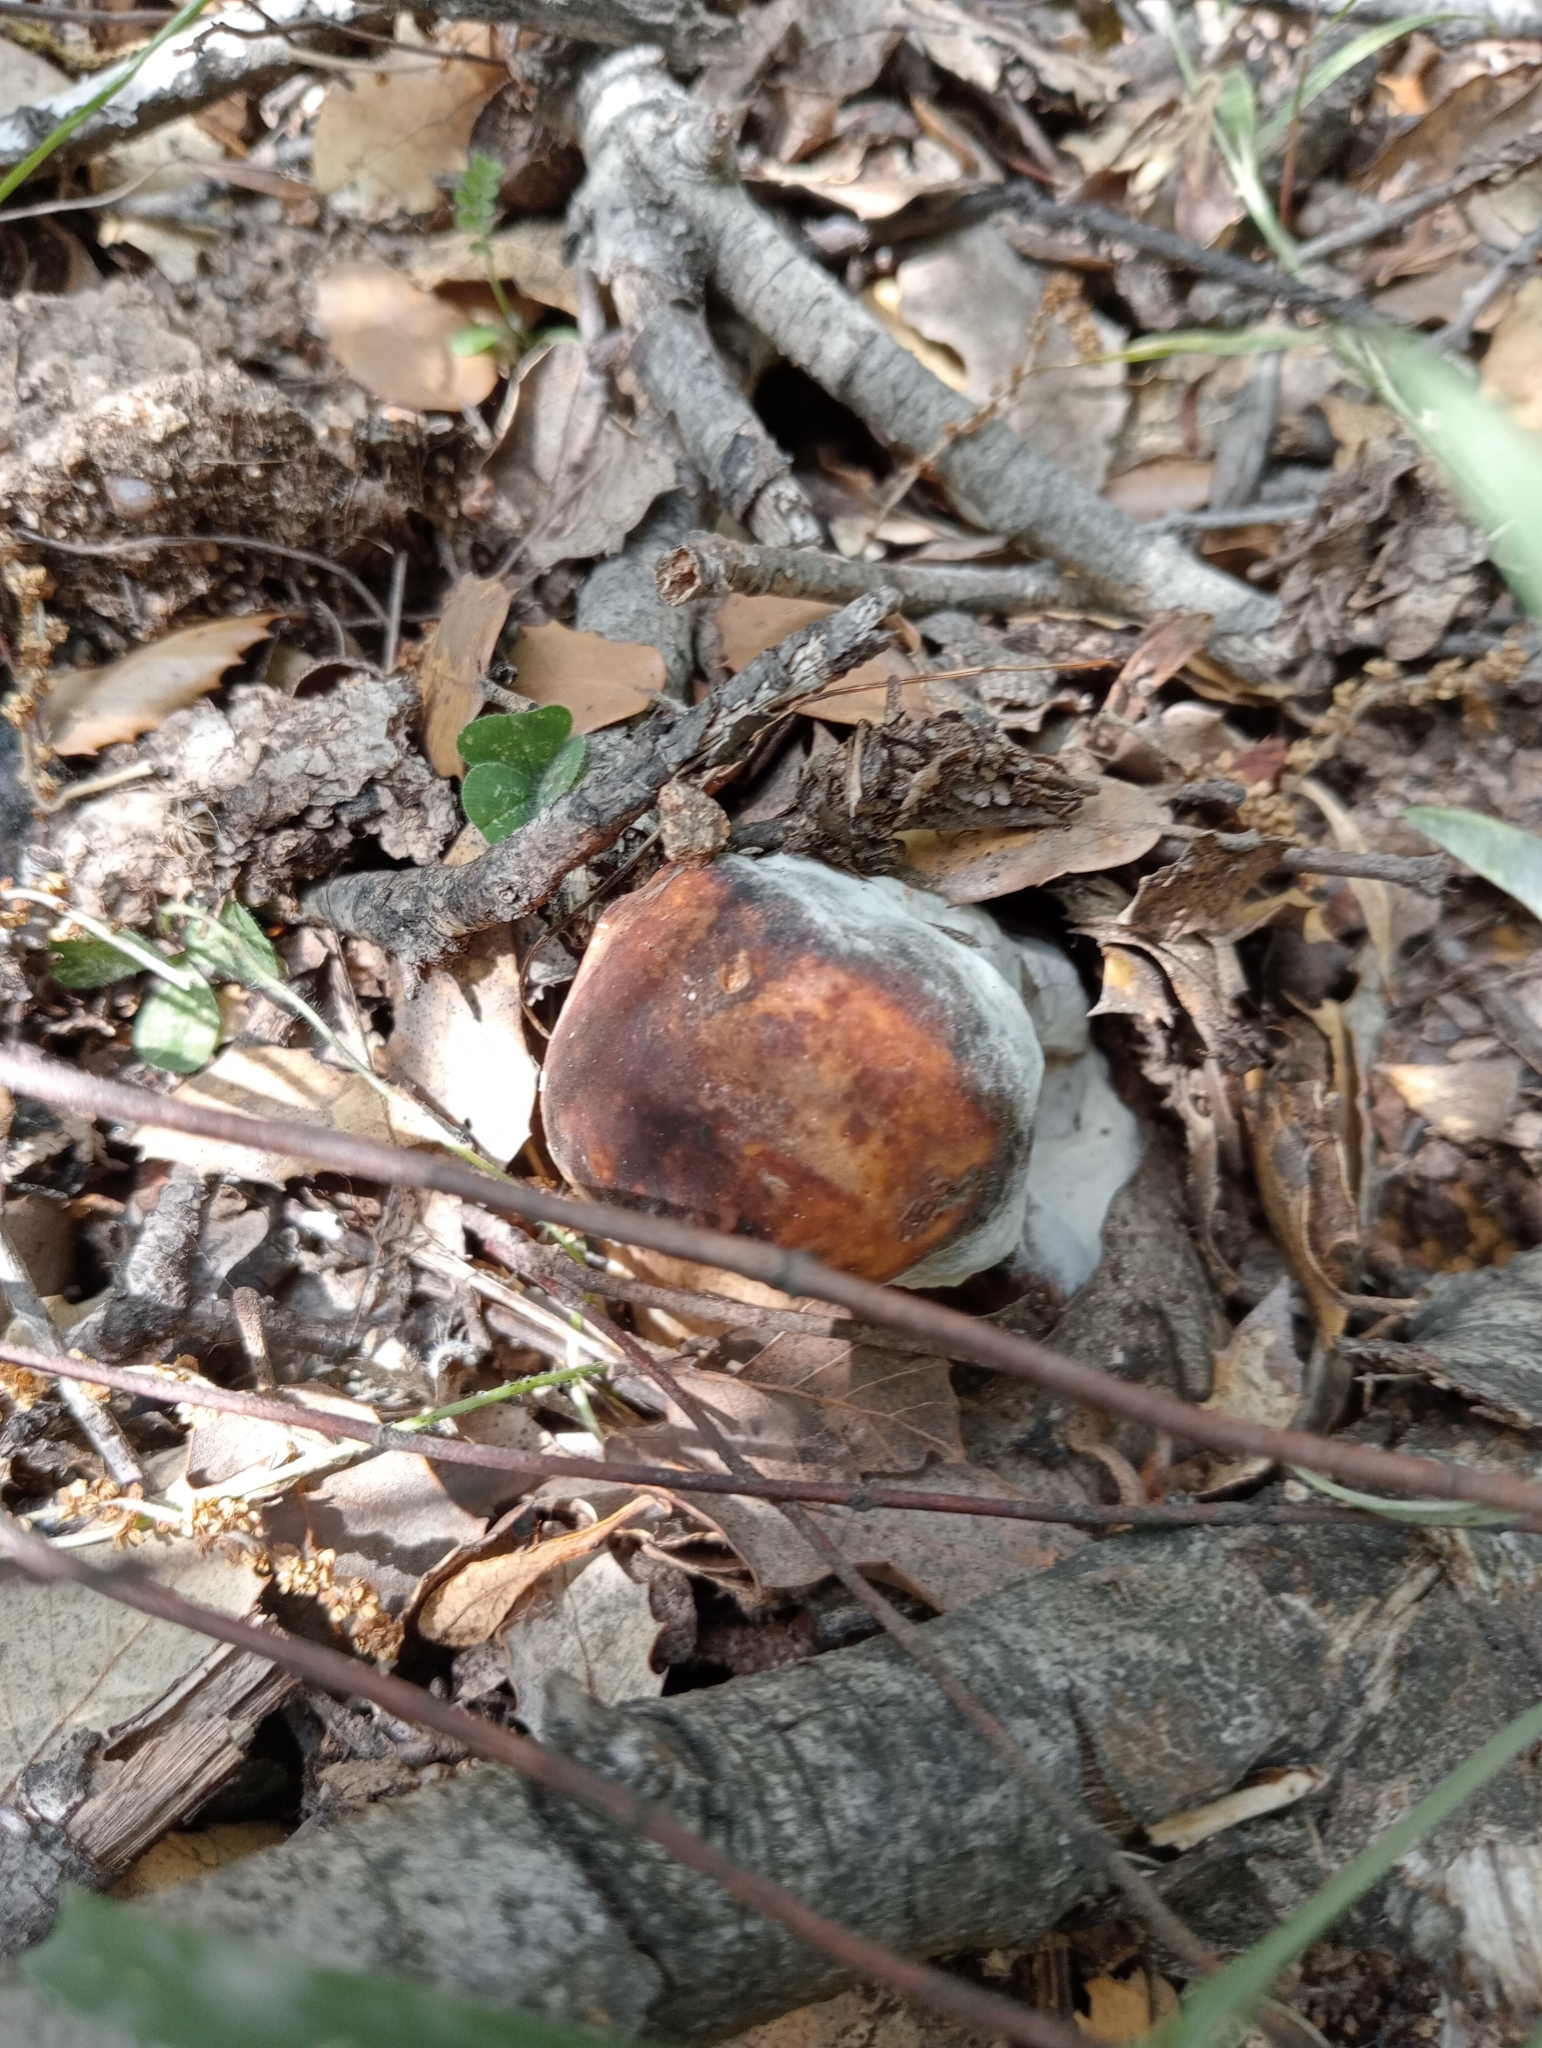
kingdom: Fungi
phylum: Basidiomycota
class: Agaricomycetes
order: Boletales
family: Boletaceae
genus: Boletus
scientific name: Boletus aereus
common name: Bronze bolete
